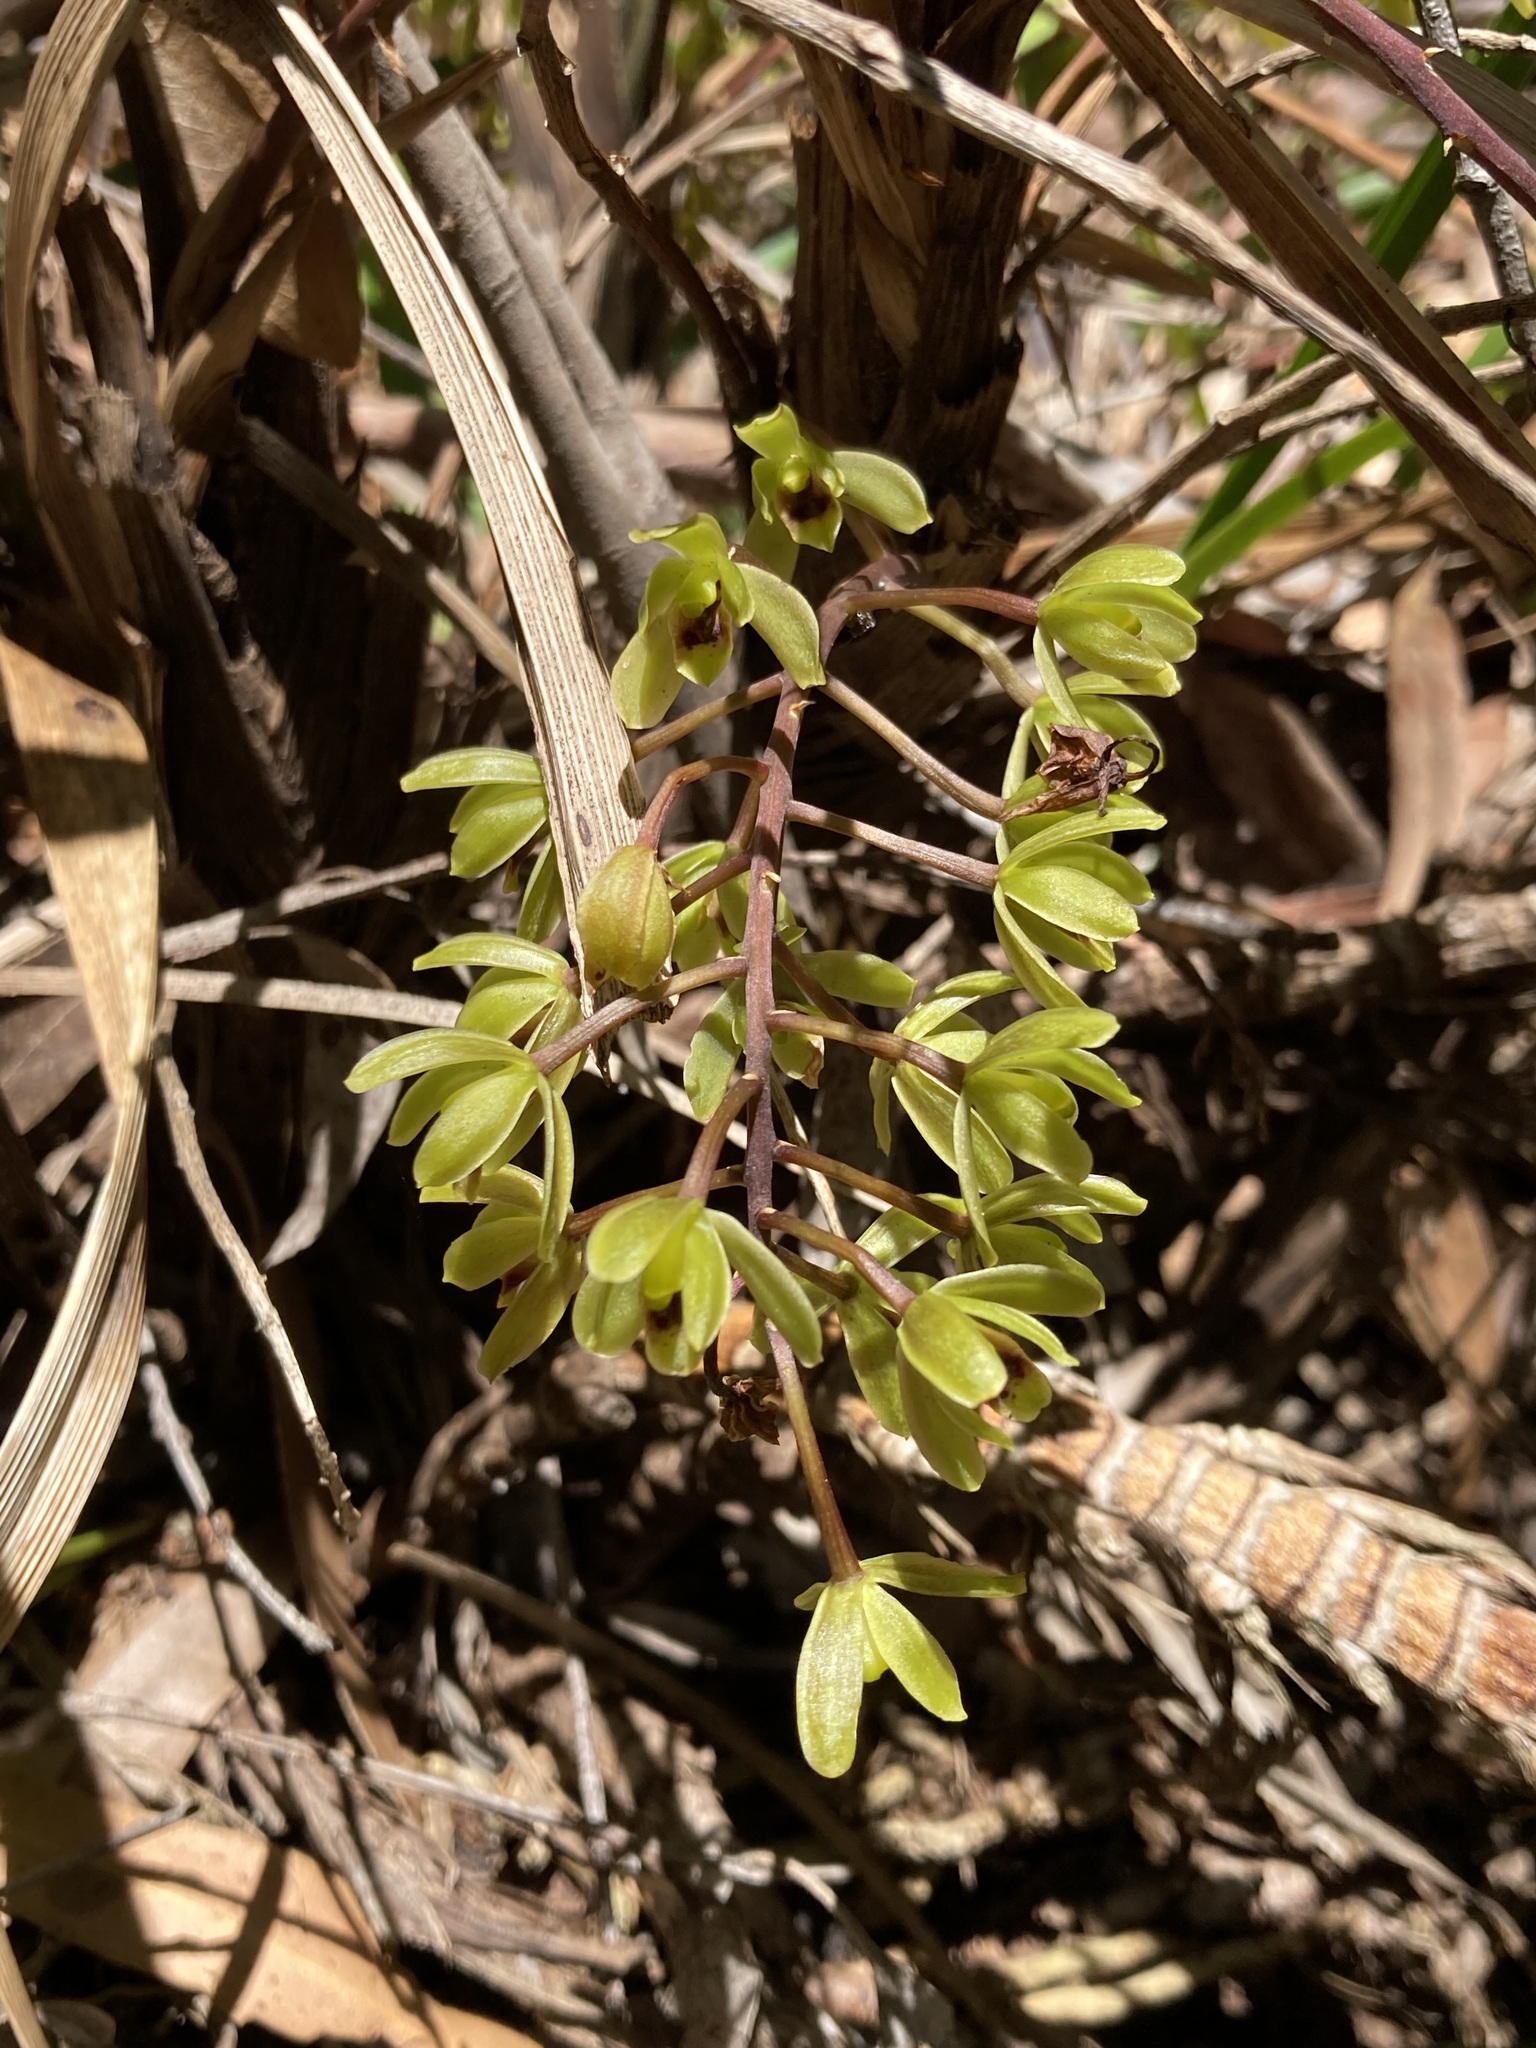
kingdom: Plantae
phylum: Tracheophyta
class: Liliopsida
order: Asparagales
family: Orchidaceae
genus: Cymbidium
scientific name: Cymbidium suave
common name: Snake orchid
